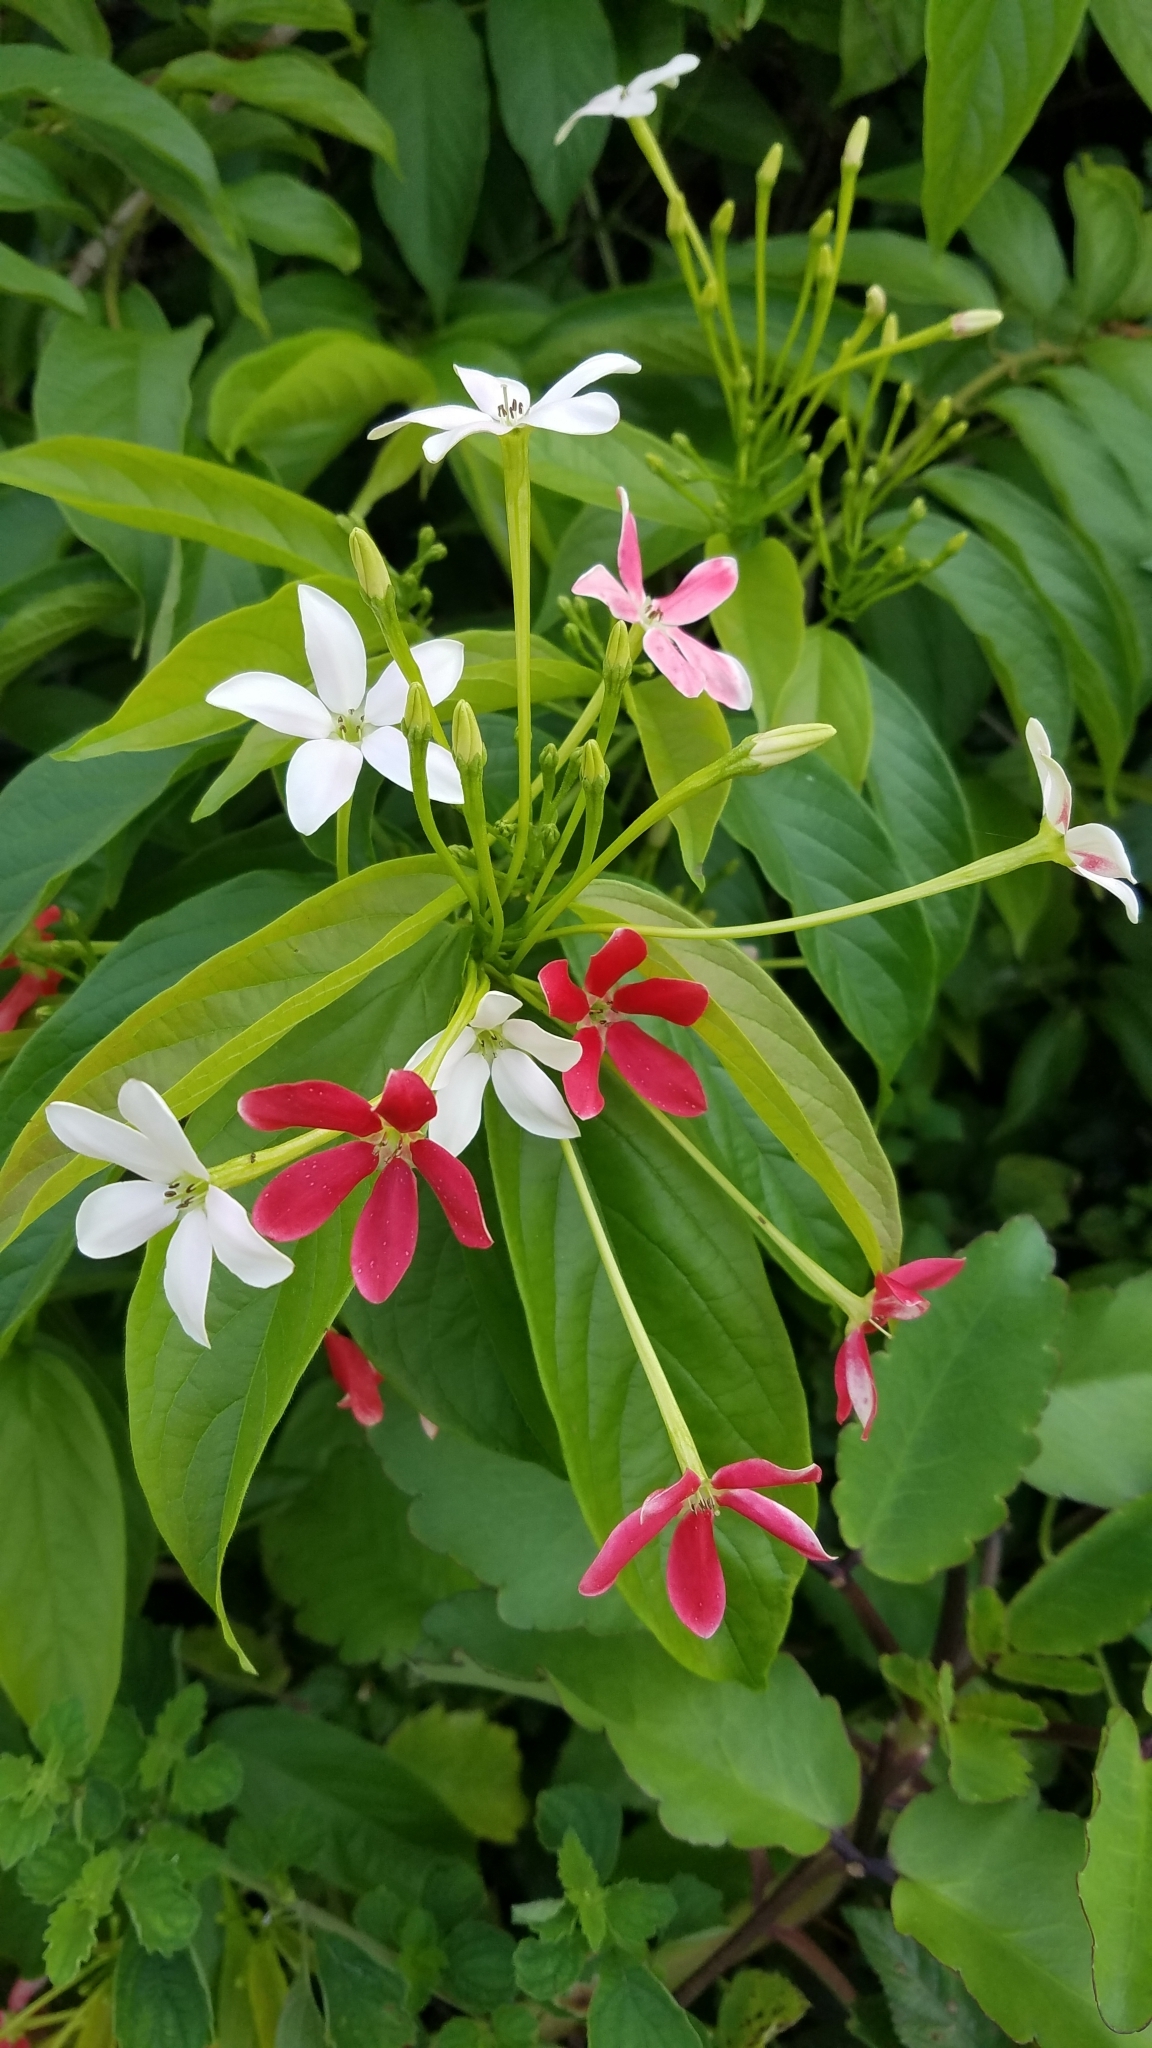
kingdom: Plantae
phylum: Tracheophyta
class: Magnoliopsida
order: Myrtales
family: Combretaceae
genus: Combretum
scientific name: Combretum indicum
